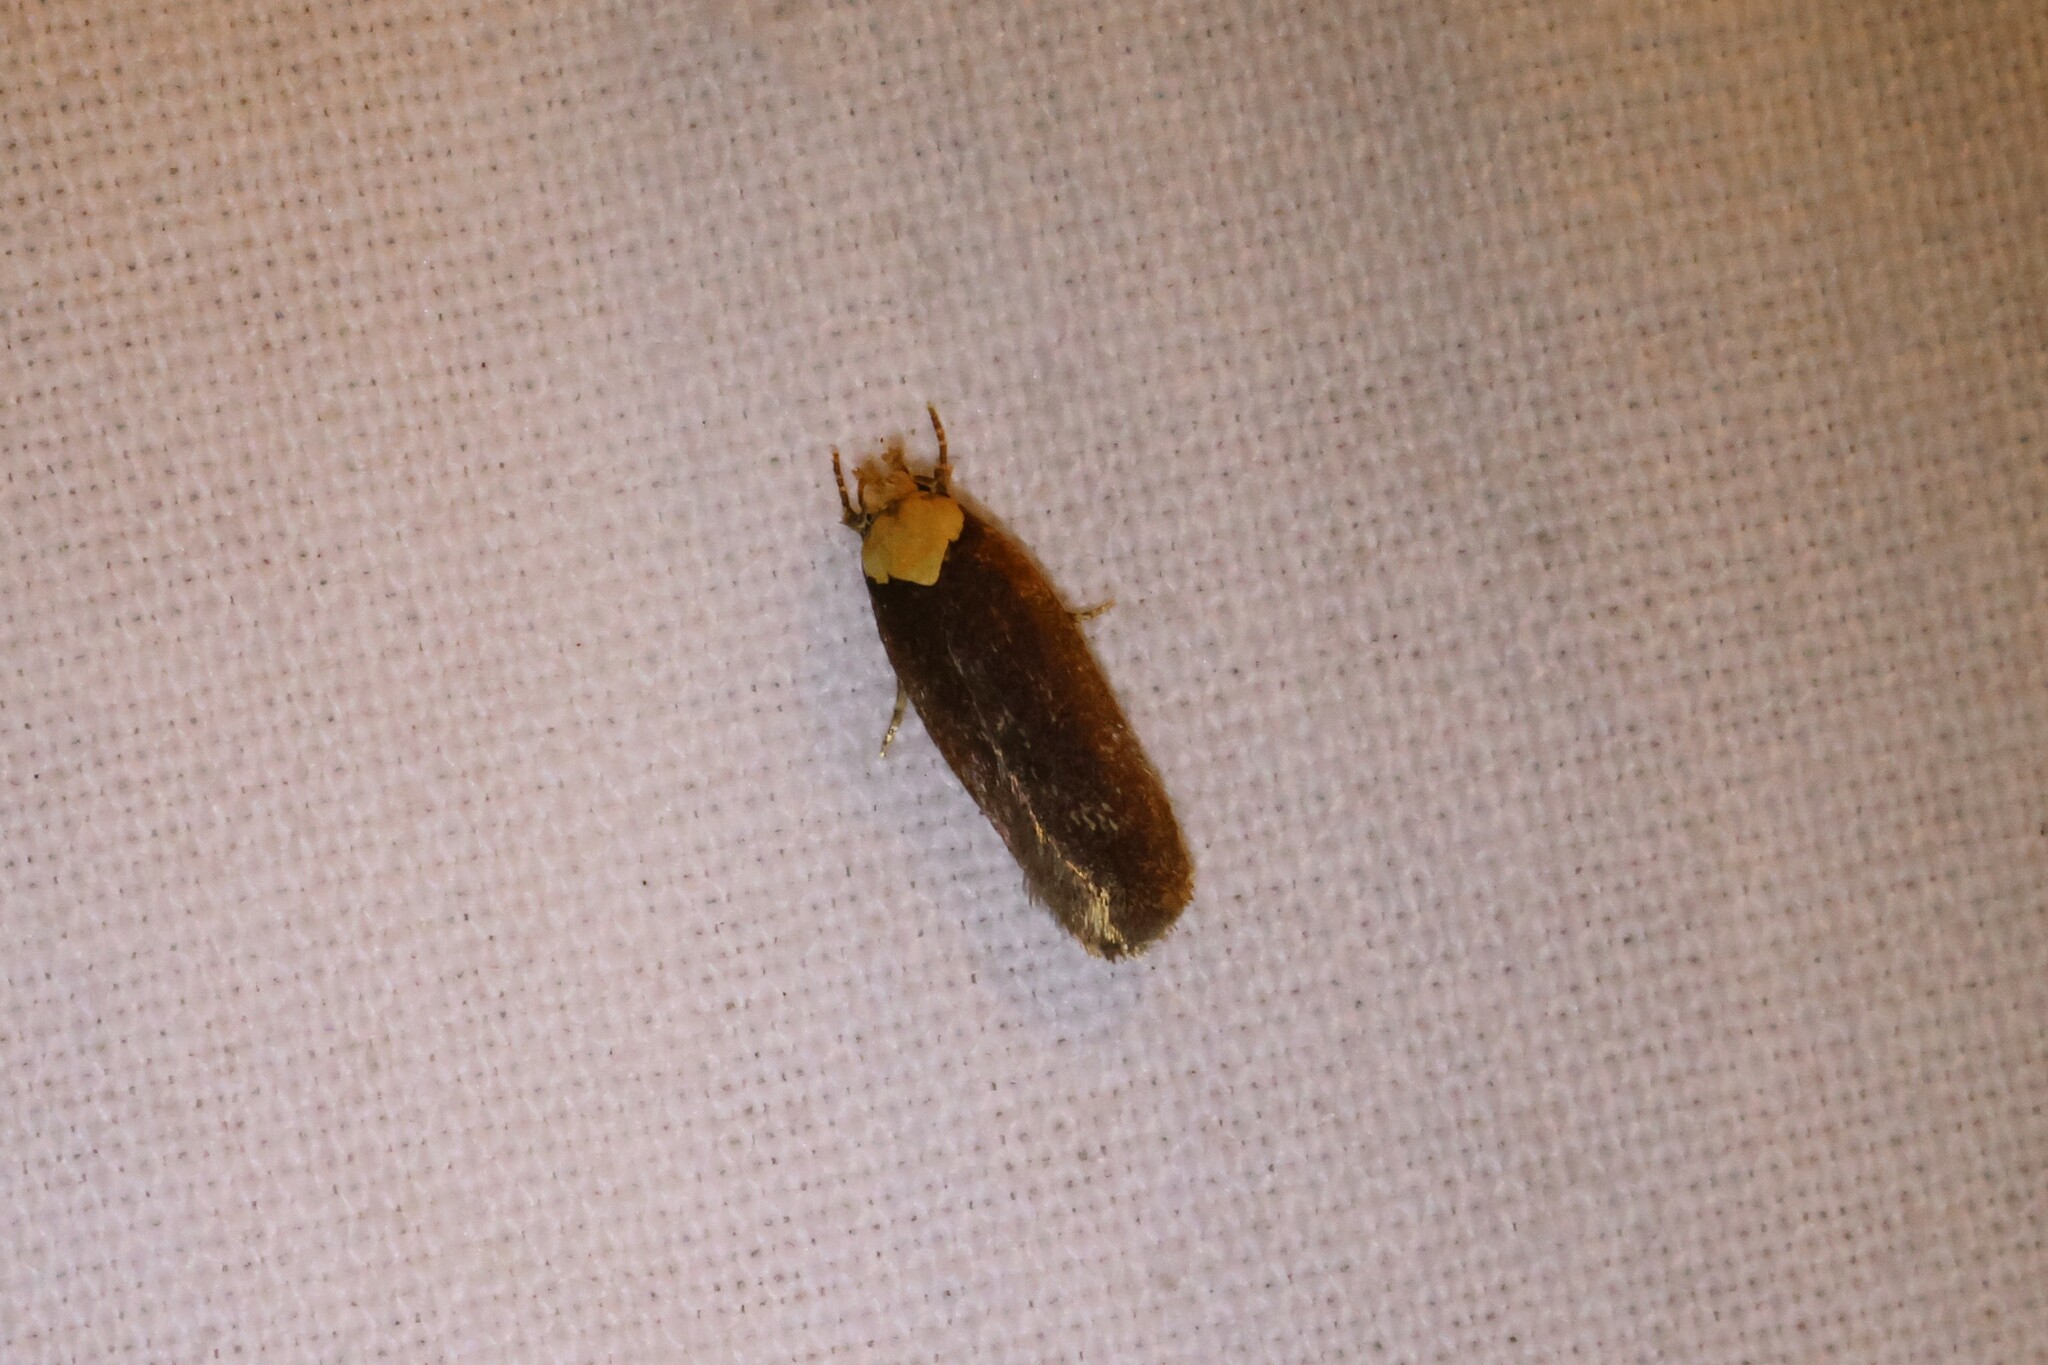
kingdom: Animalia
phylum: Arthropoda
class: Insecta
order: Lepidoptera
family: Depressariidae
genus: Depressaria
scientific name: Depressaria depressana
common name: Lost flat-body
